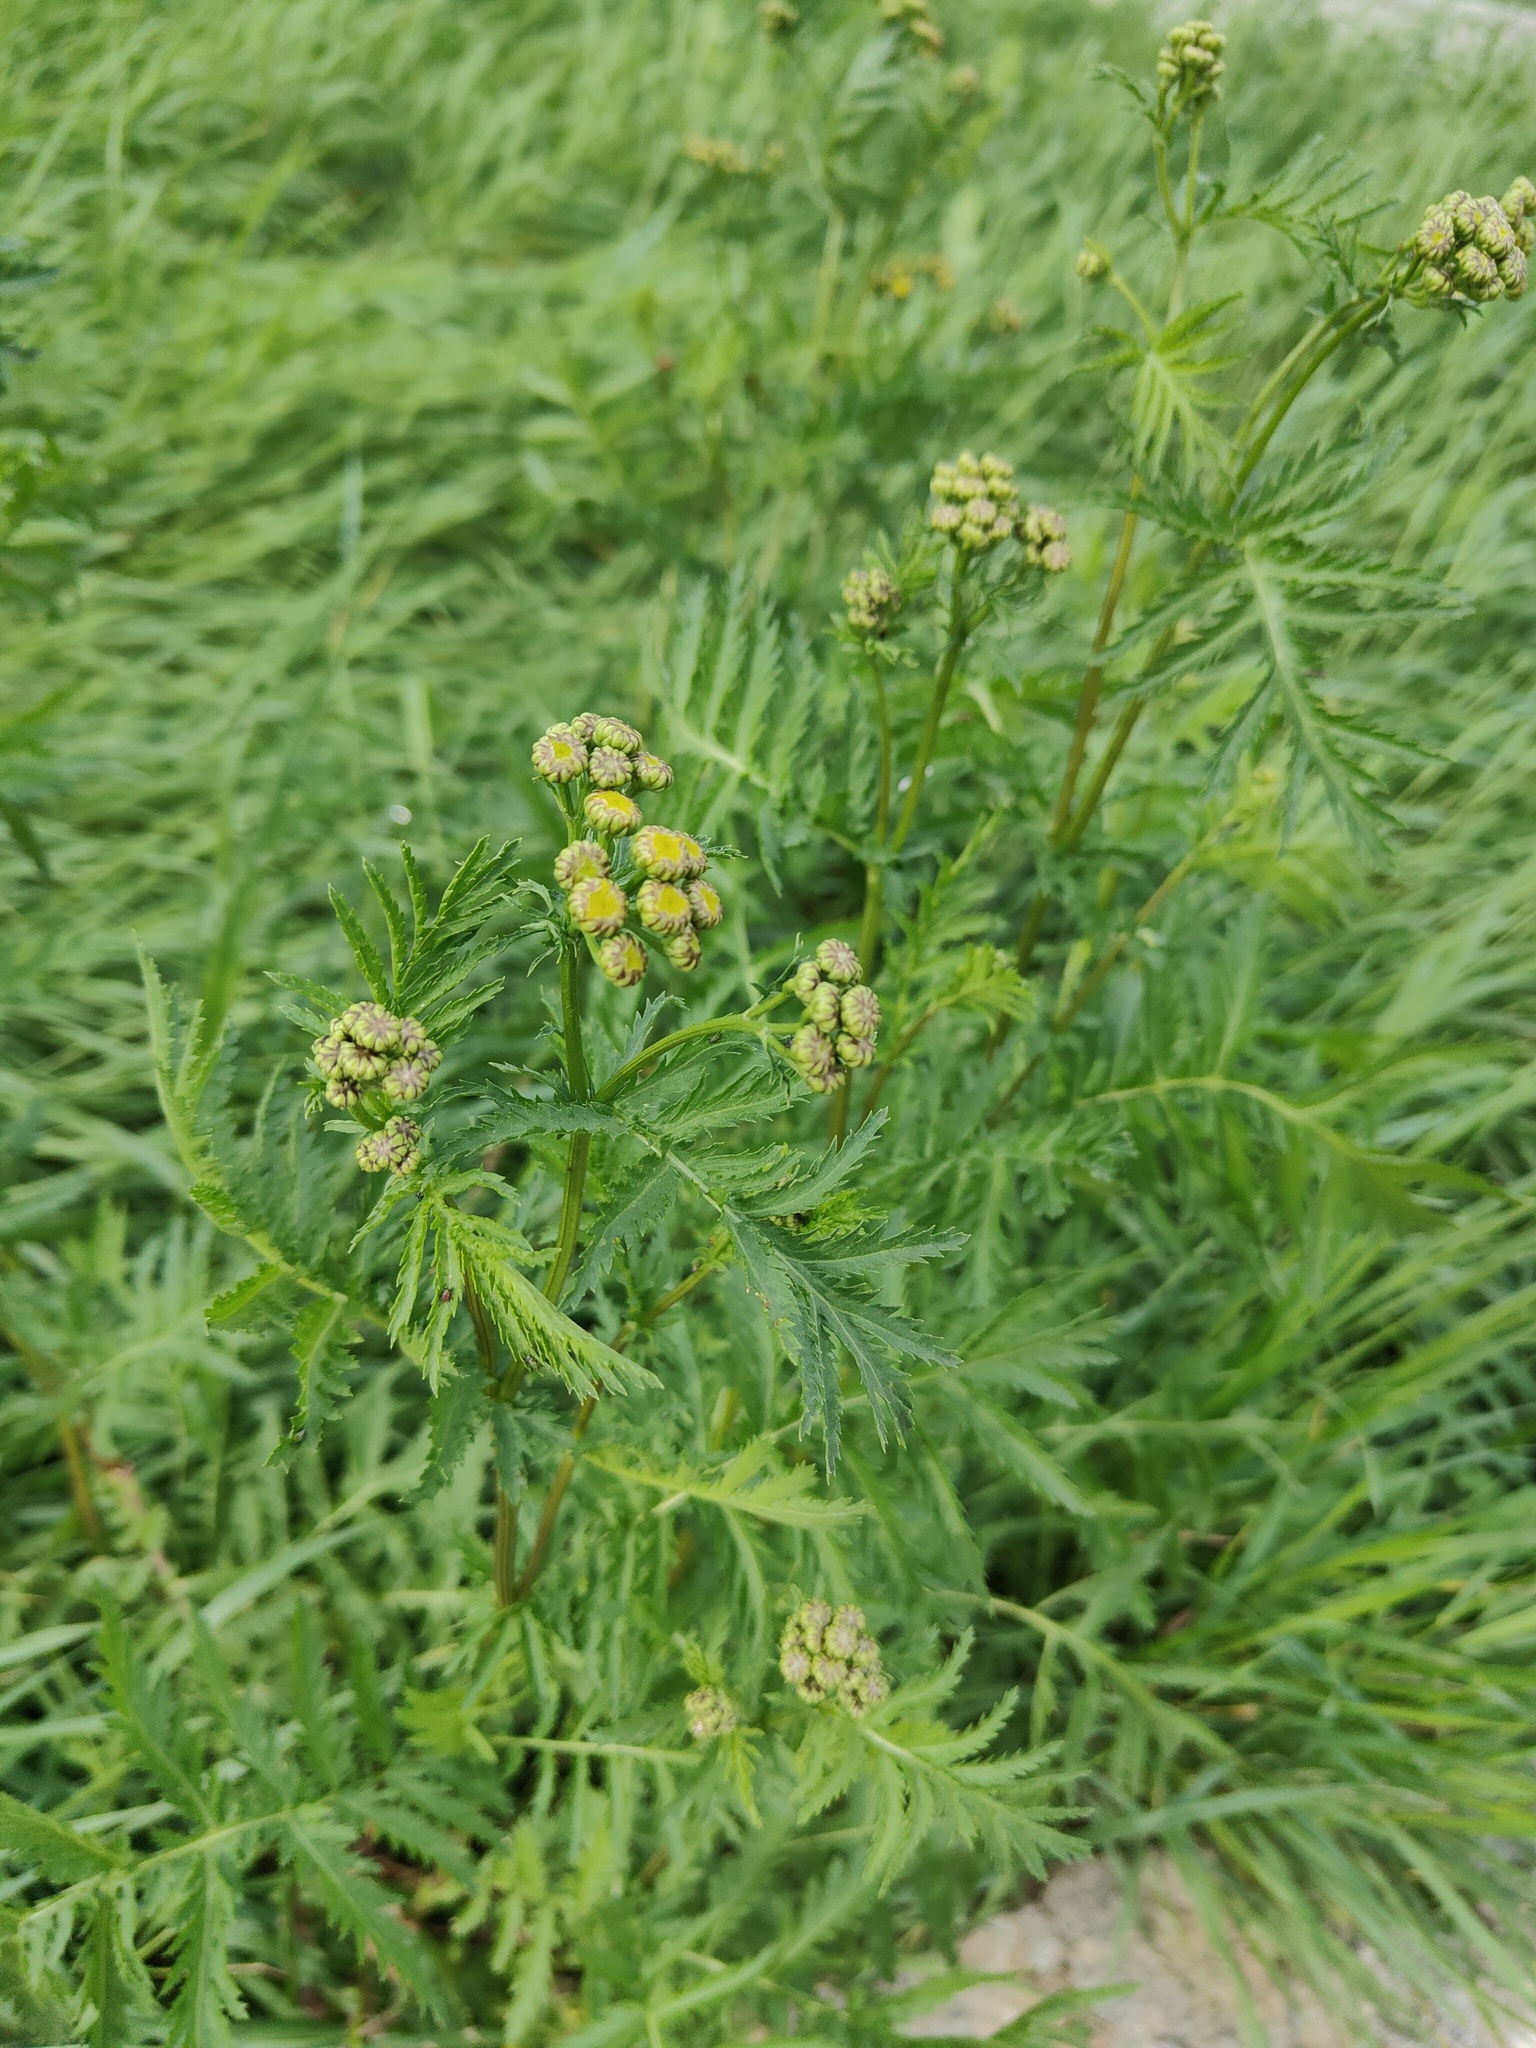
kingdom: Plantae
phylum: Tracheophyta
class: Magnoliopsida
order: Asterales
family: Asteraceae
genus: Tanacetum
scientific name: Tanacetum vulgare
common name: Common tansy
